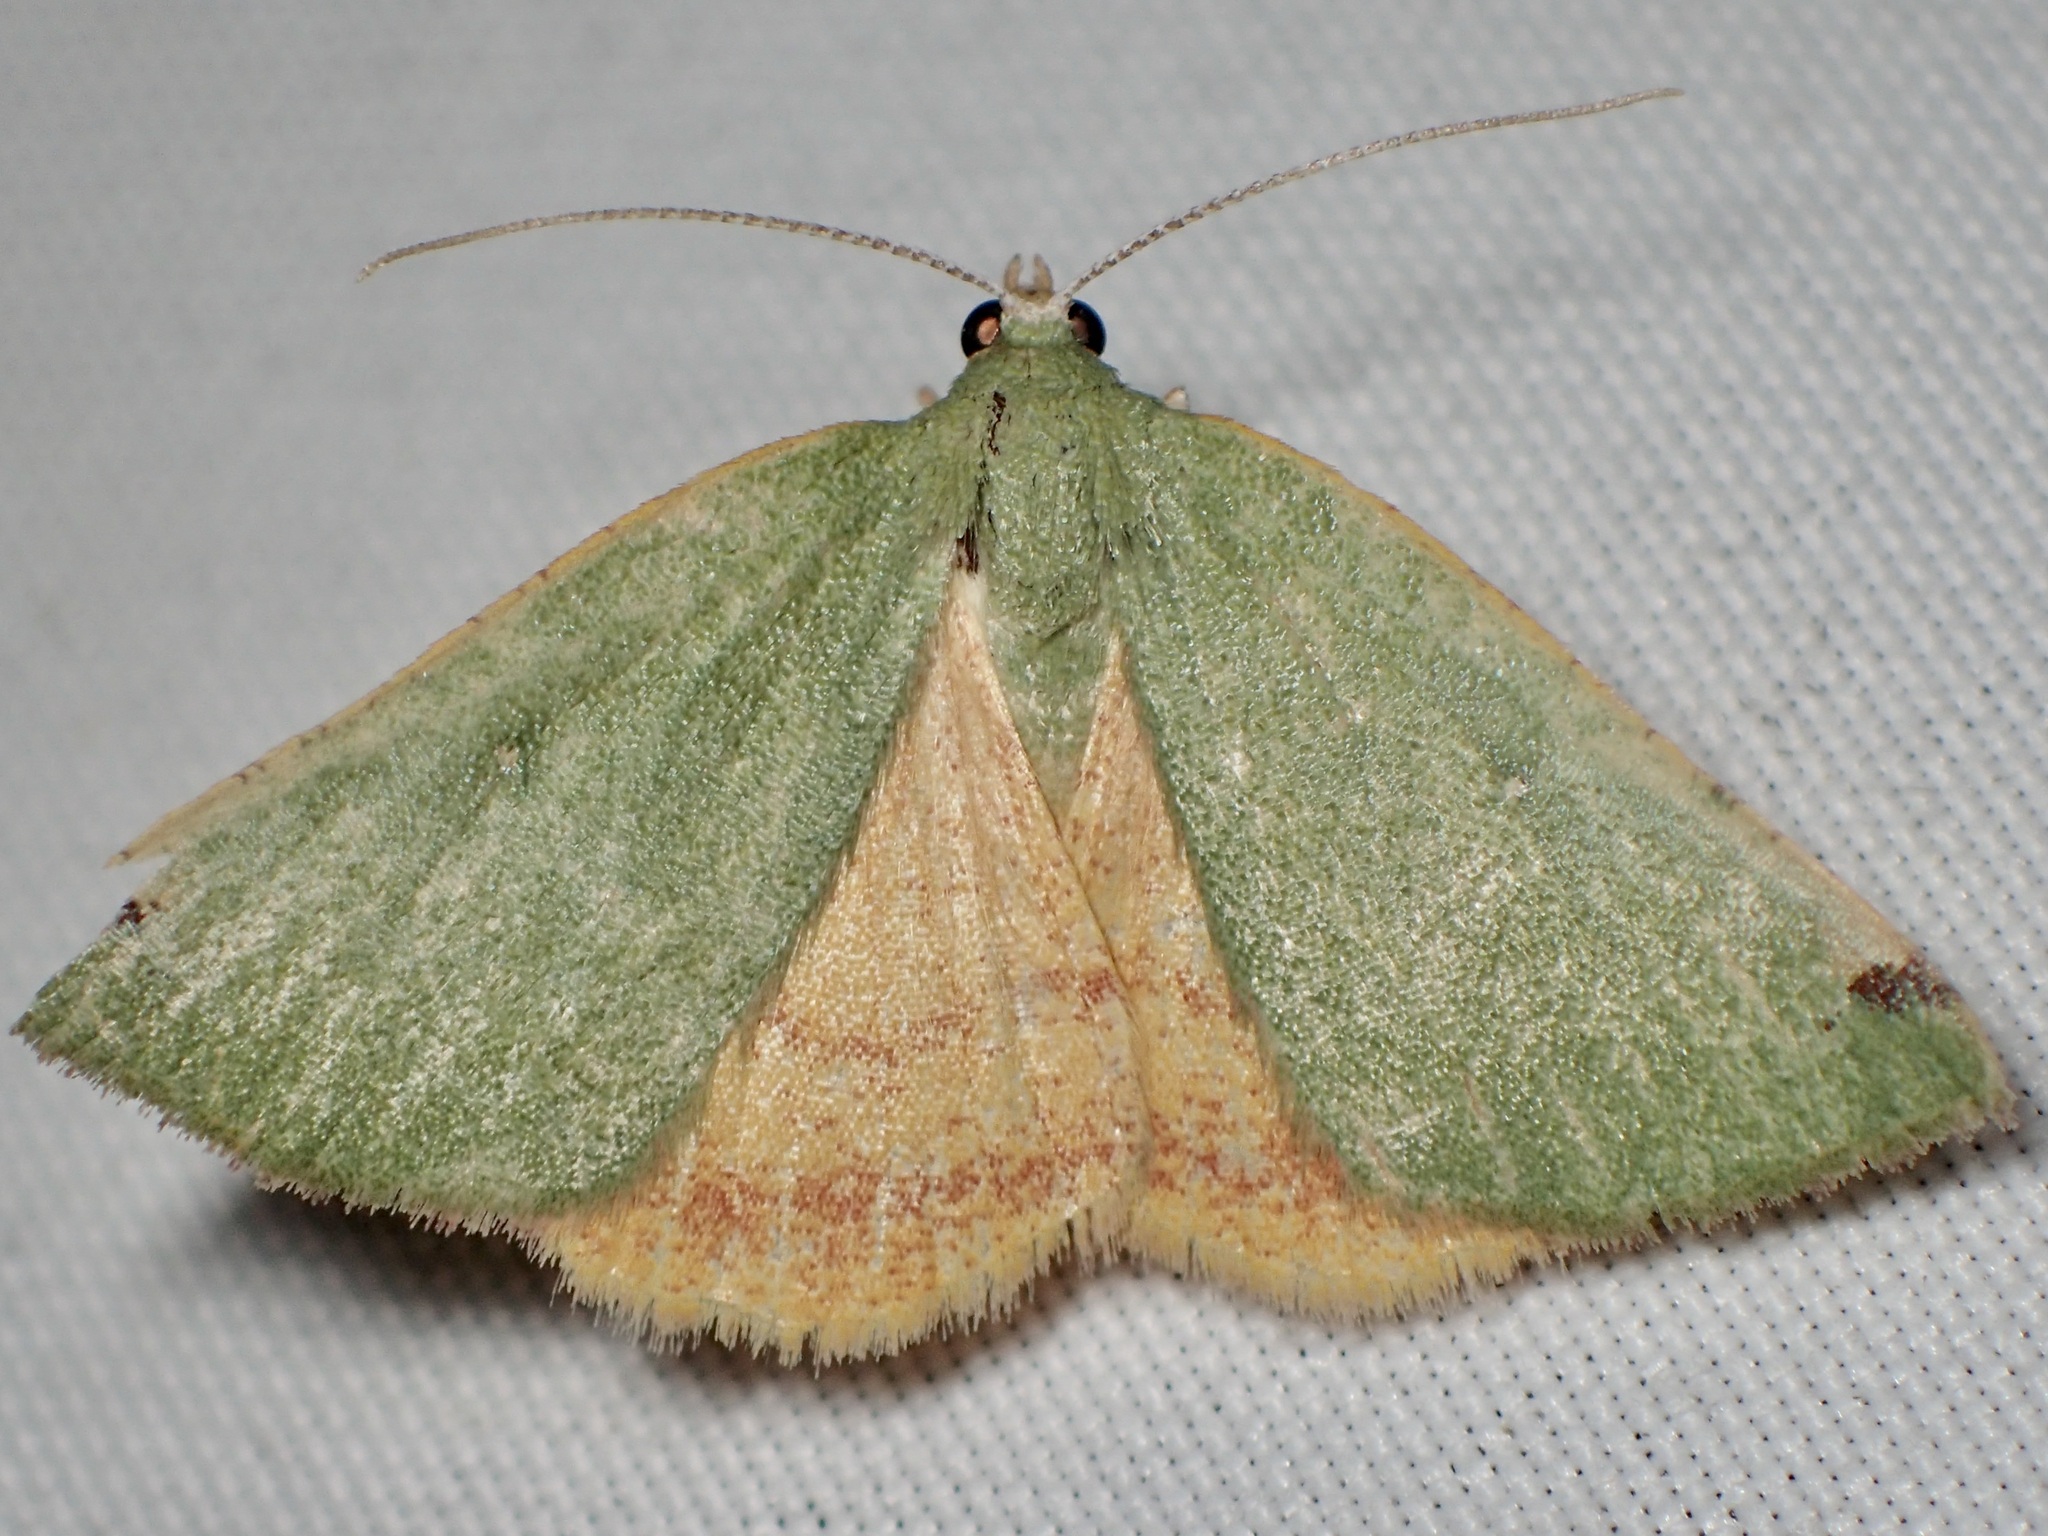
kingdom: Animalia
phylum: Arthropoda
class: Insecta
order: Lepidoptera
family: Geometridae
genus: Chloraspilates
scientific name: Chloraspilates bicoloraria
